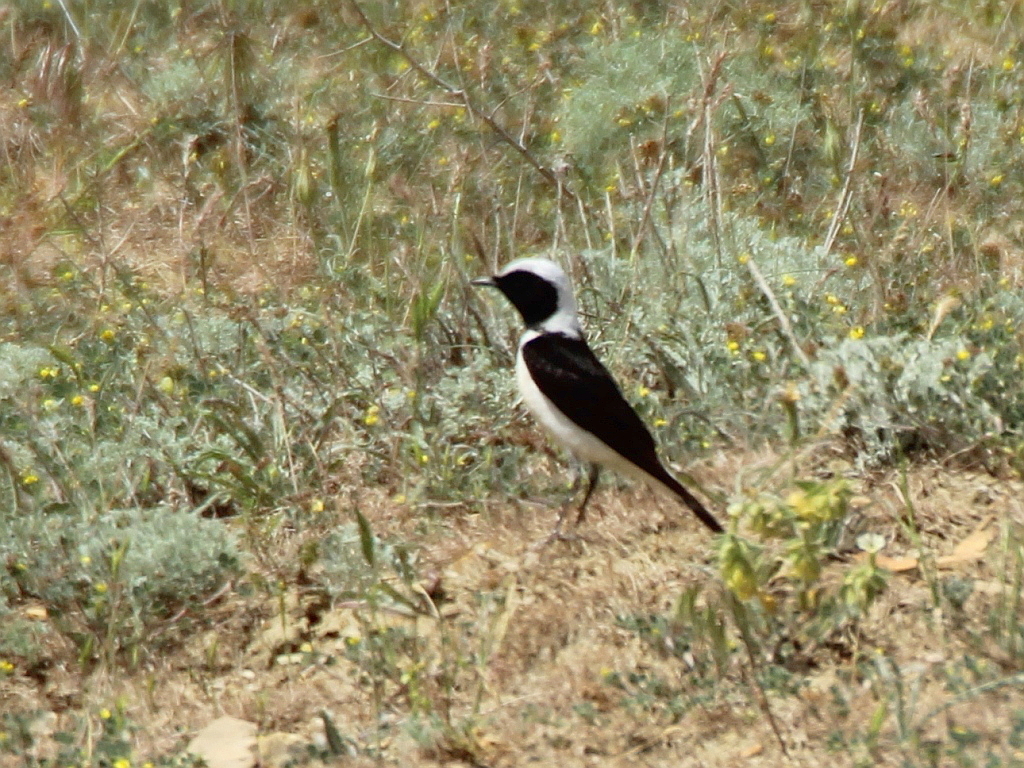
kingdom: Animalia
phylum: Chordata
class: Aves
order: Passeriformes
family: Muscicapidae
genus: Oenanthe
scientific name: Oenanthe pleschanka
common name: Pied wheatear
